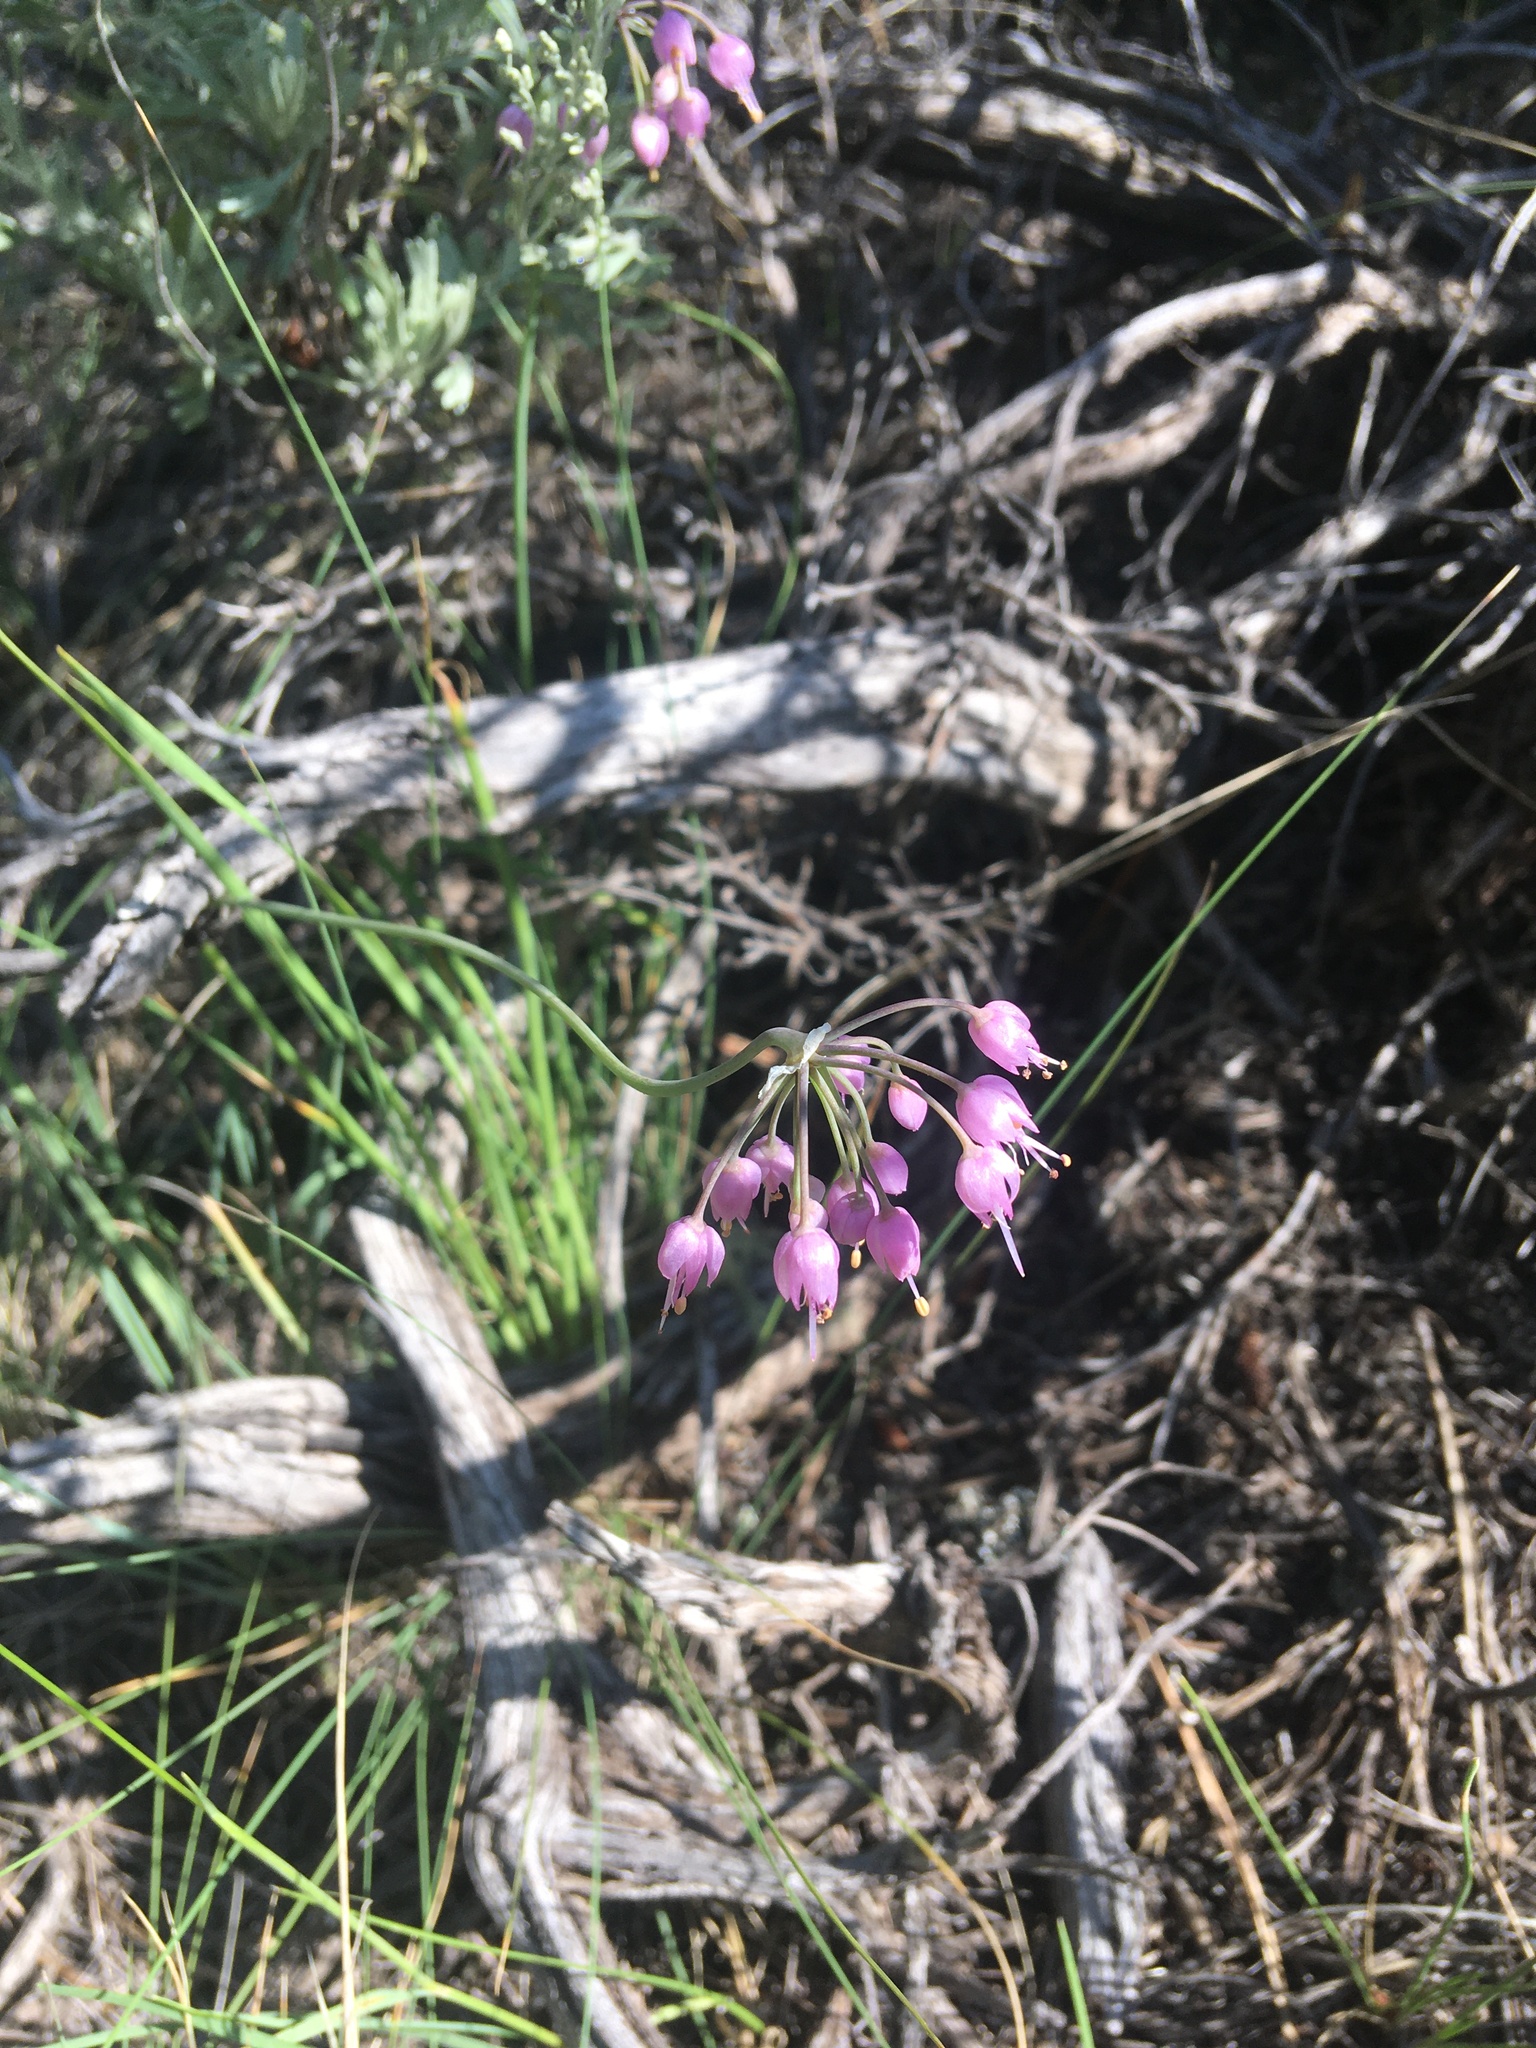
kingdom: Plantae
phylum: Tracheophyta
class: Liliopsida
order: Asparagales
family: Amaryllidaceae
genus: Allium
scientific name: Allium cernuum
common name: Nodding onion
